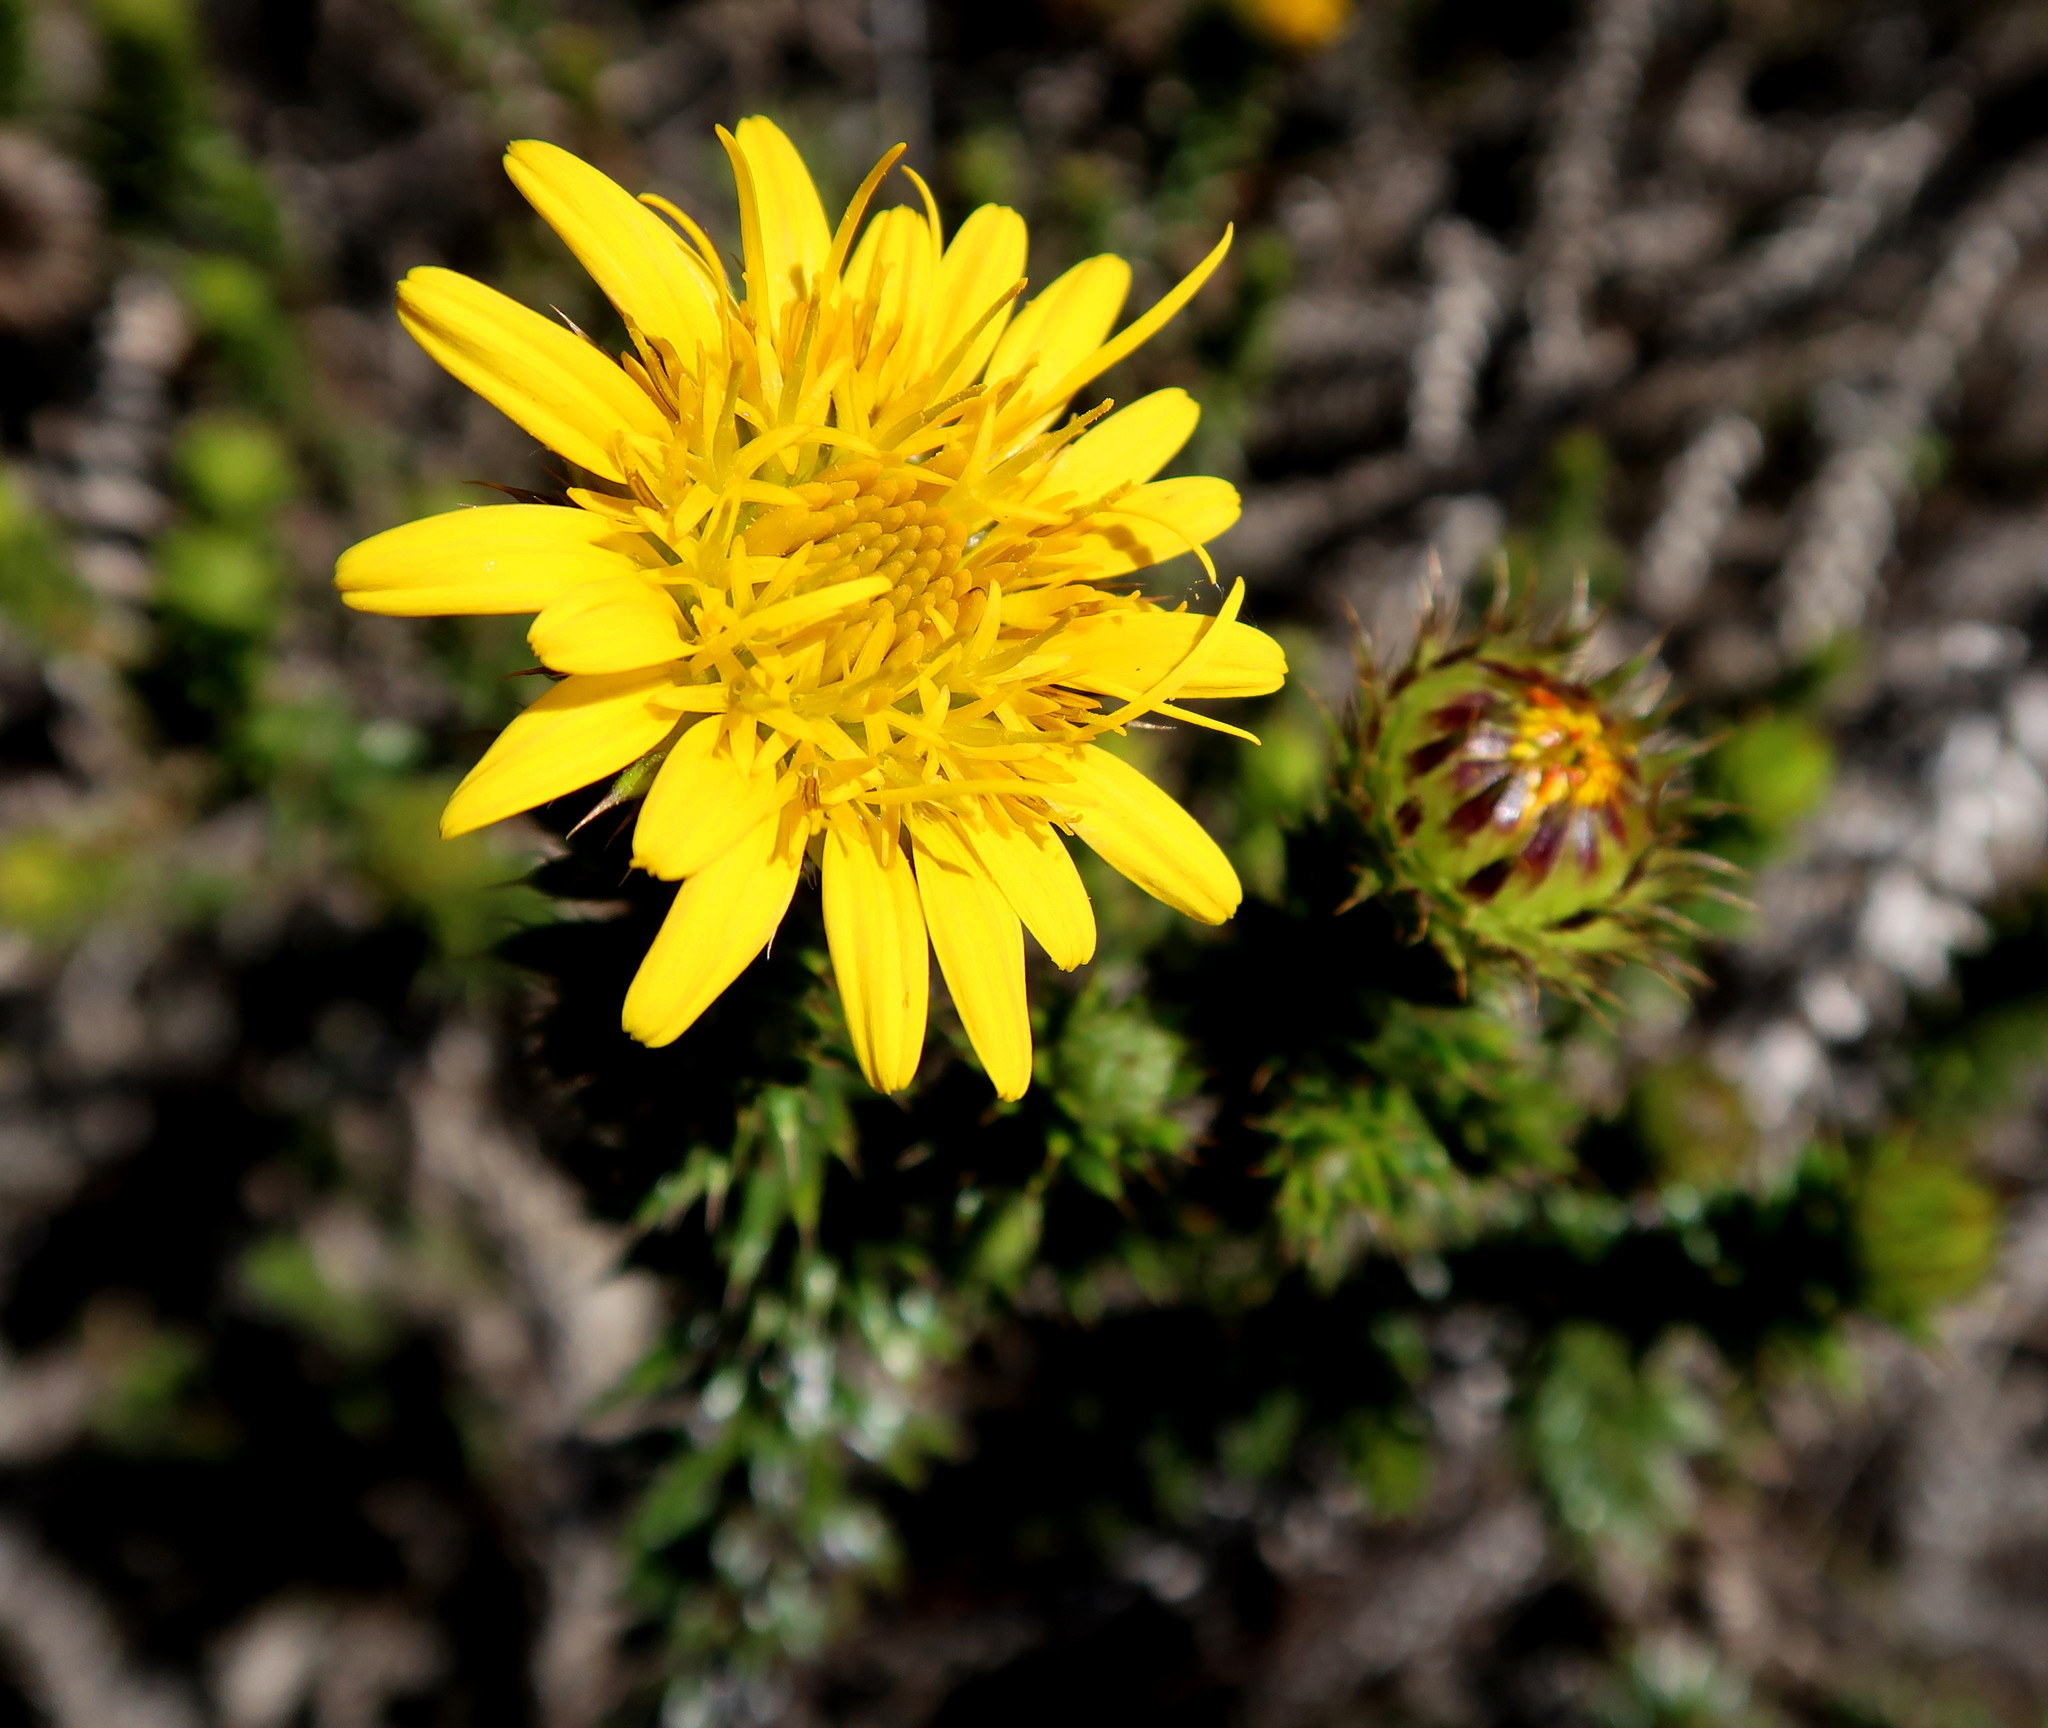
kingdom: Plantae
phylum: Tracheophyta
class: Magnoliopsida
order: Asterales
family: Asteraceae
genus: Cullumia
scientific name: Cullumia carlinoides
